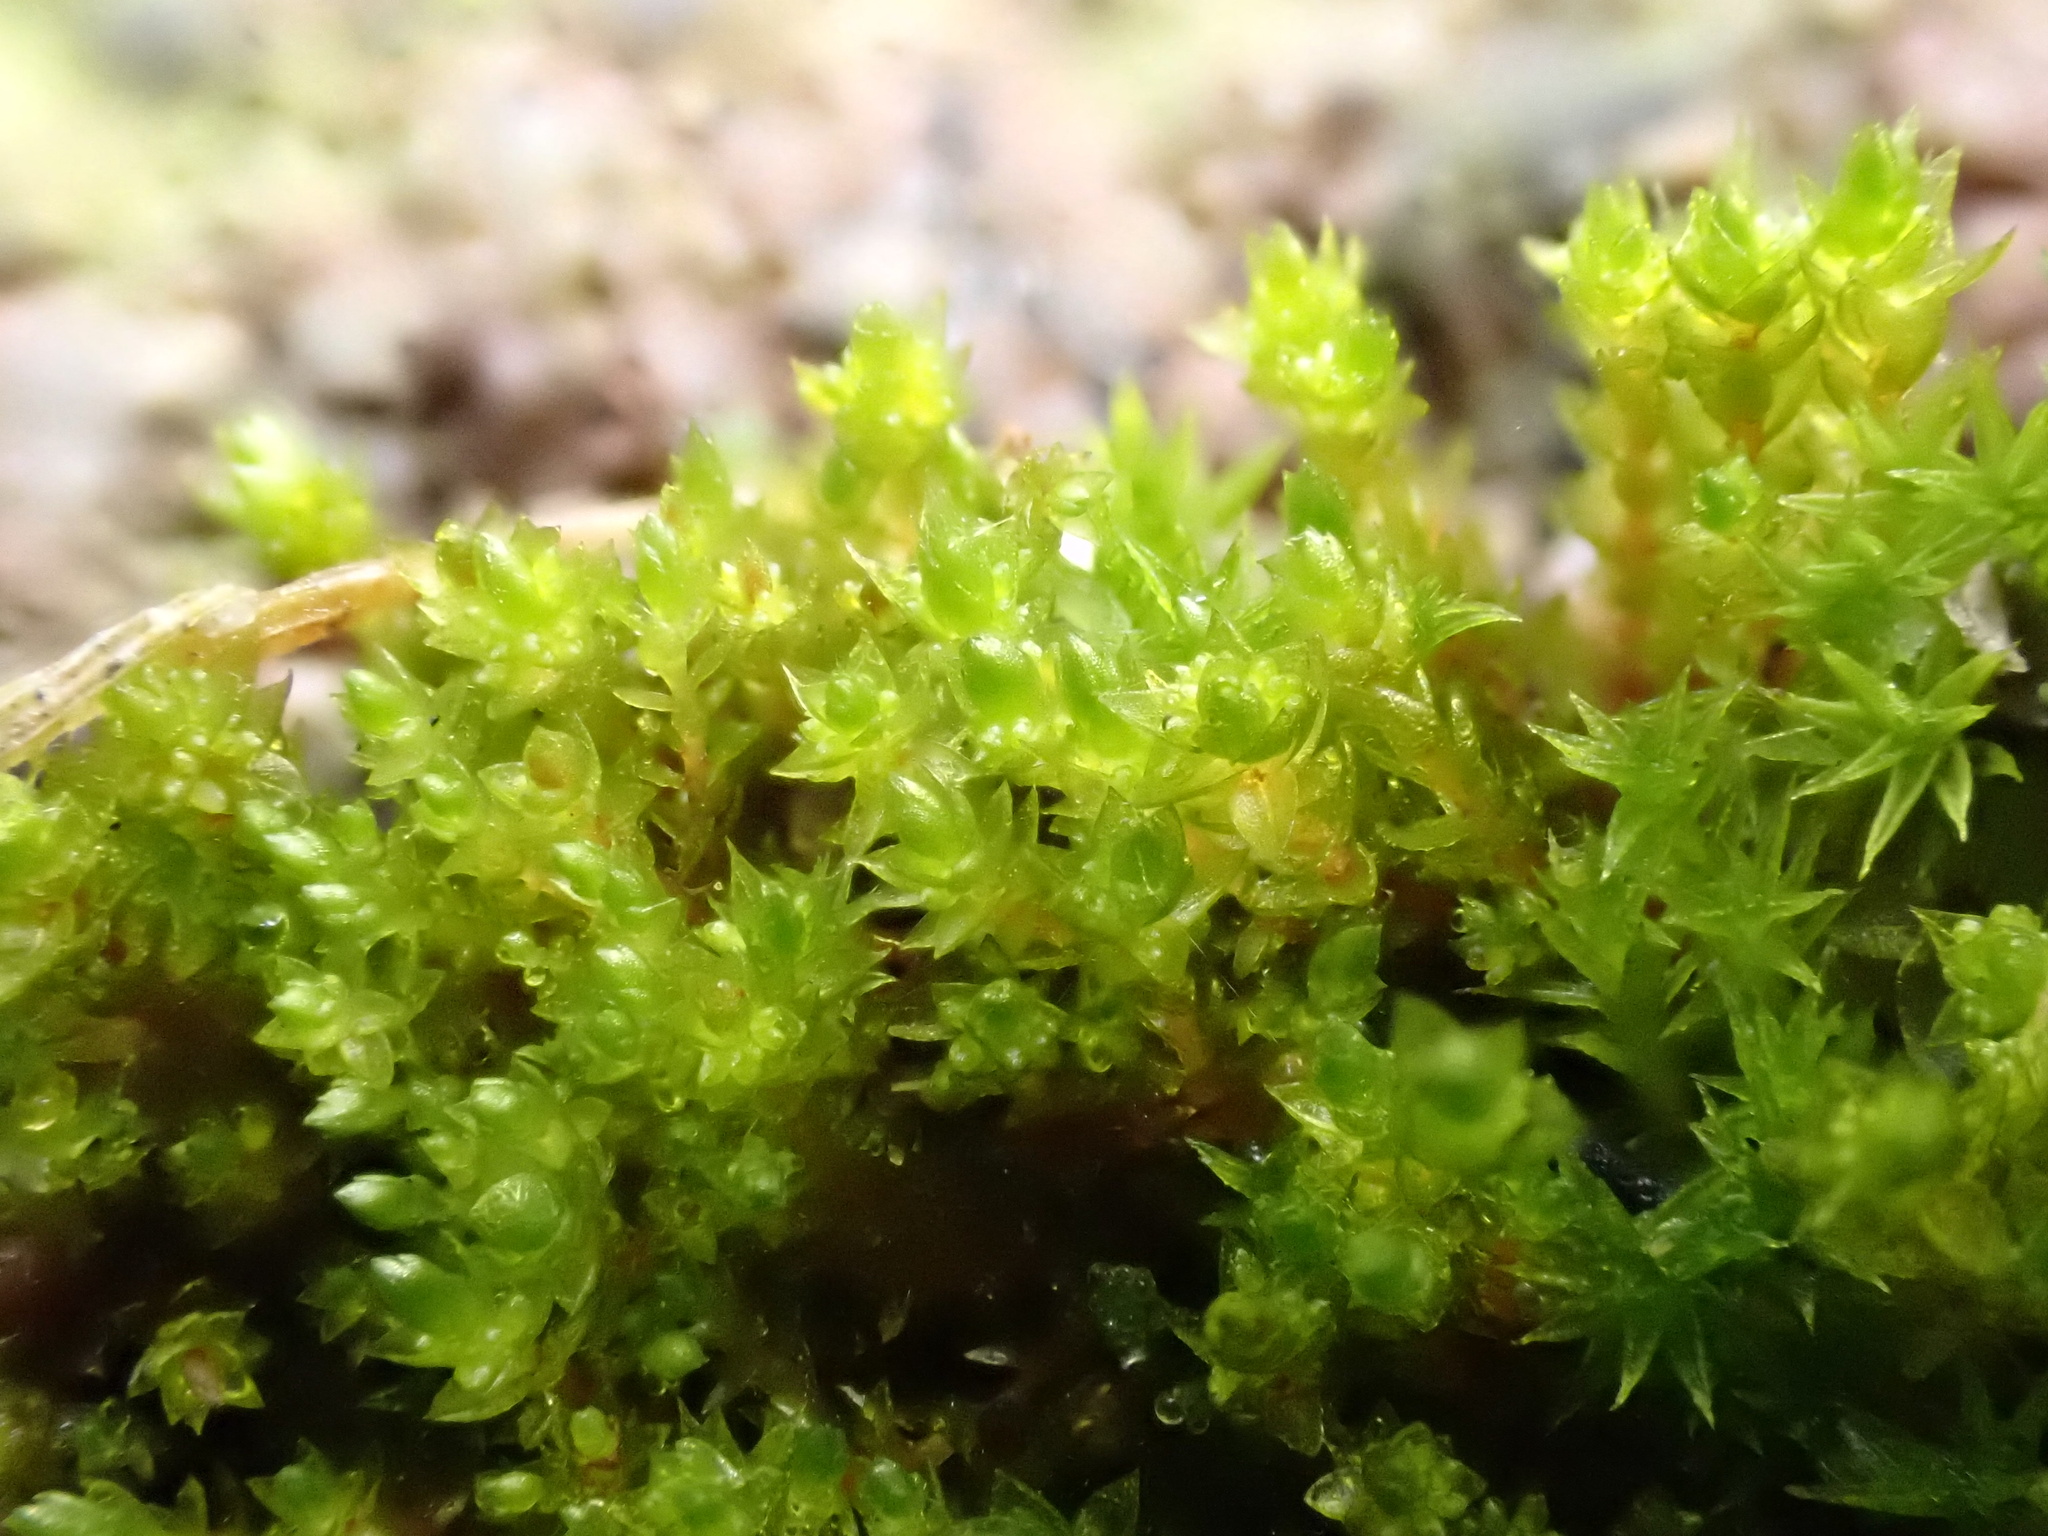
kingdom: Plantae
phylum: Bryophyta
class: Bryopsida
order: Bryales
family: Bryaceae
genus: Gemmabryum
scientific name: Gemmabryum
